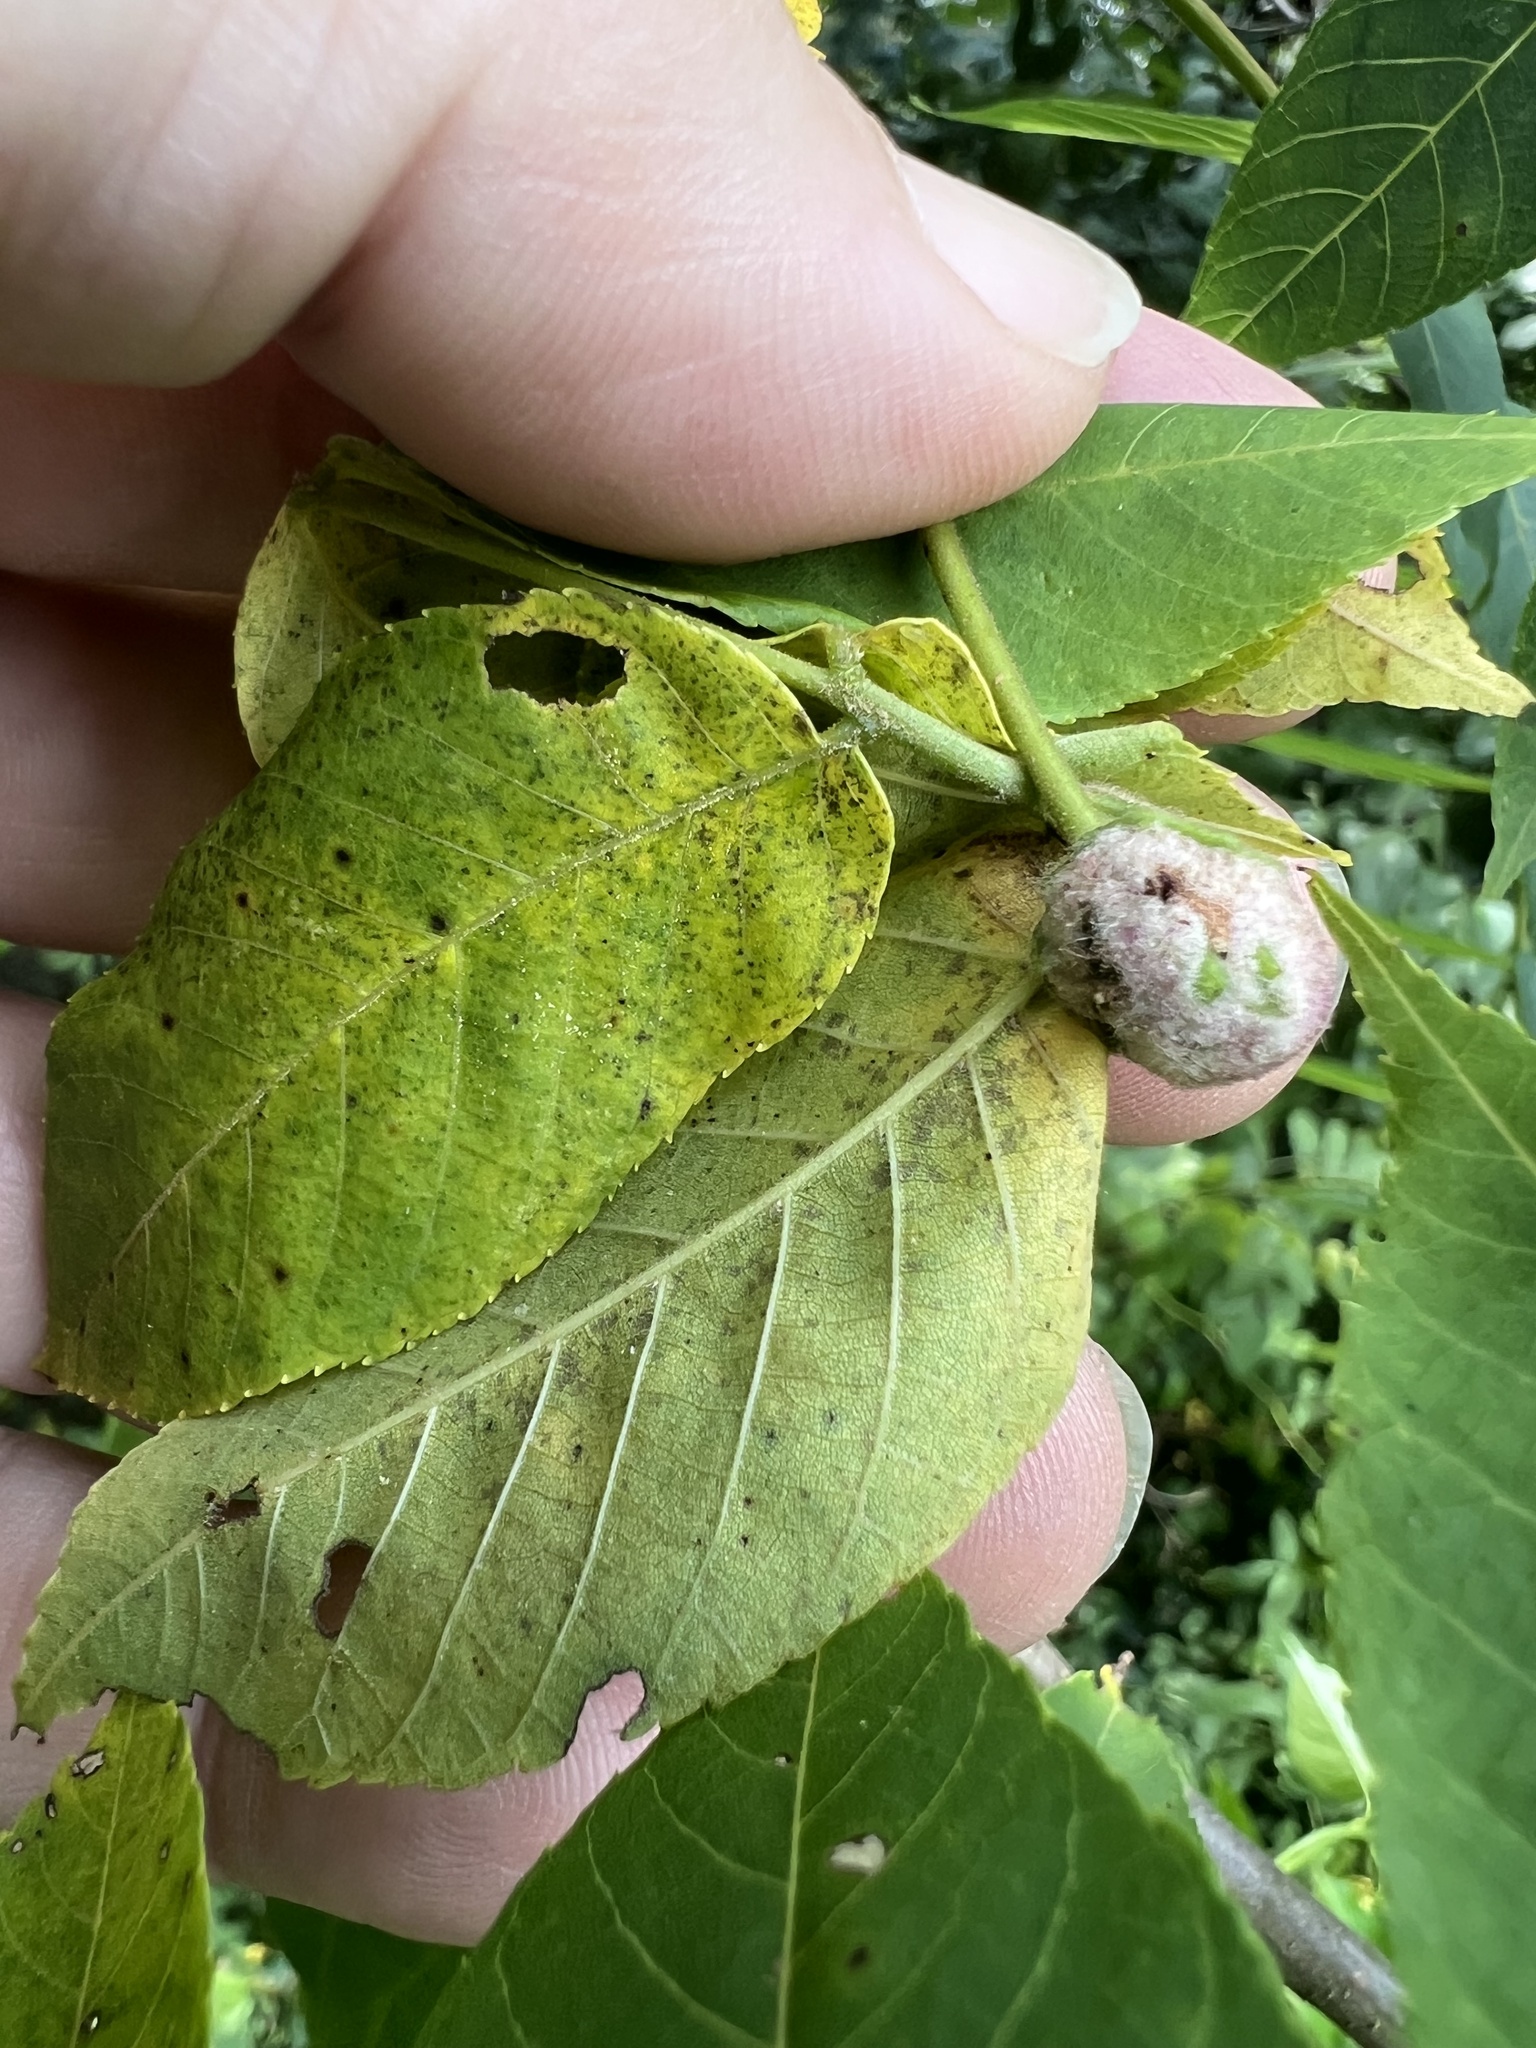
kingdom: Animalia
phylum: Arthropoda
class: Arachnida
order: Trombidiformes
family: Eriophyidae
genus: Aceria
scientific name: Aceria
